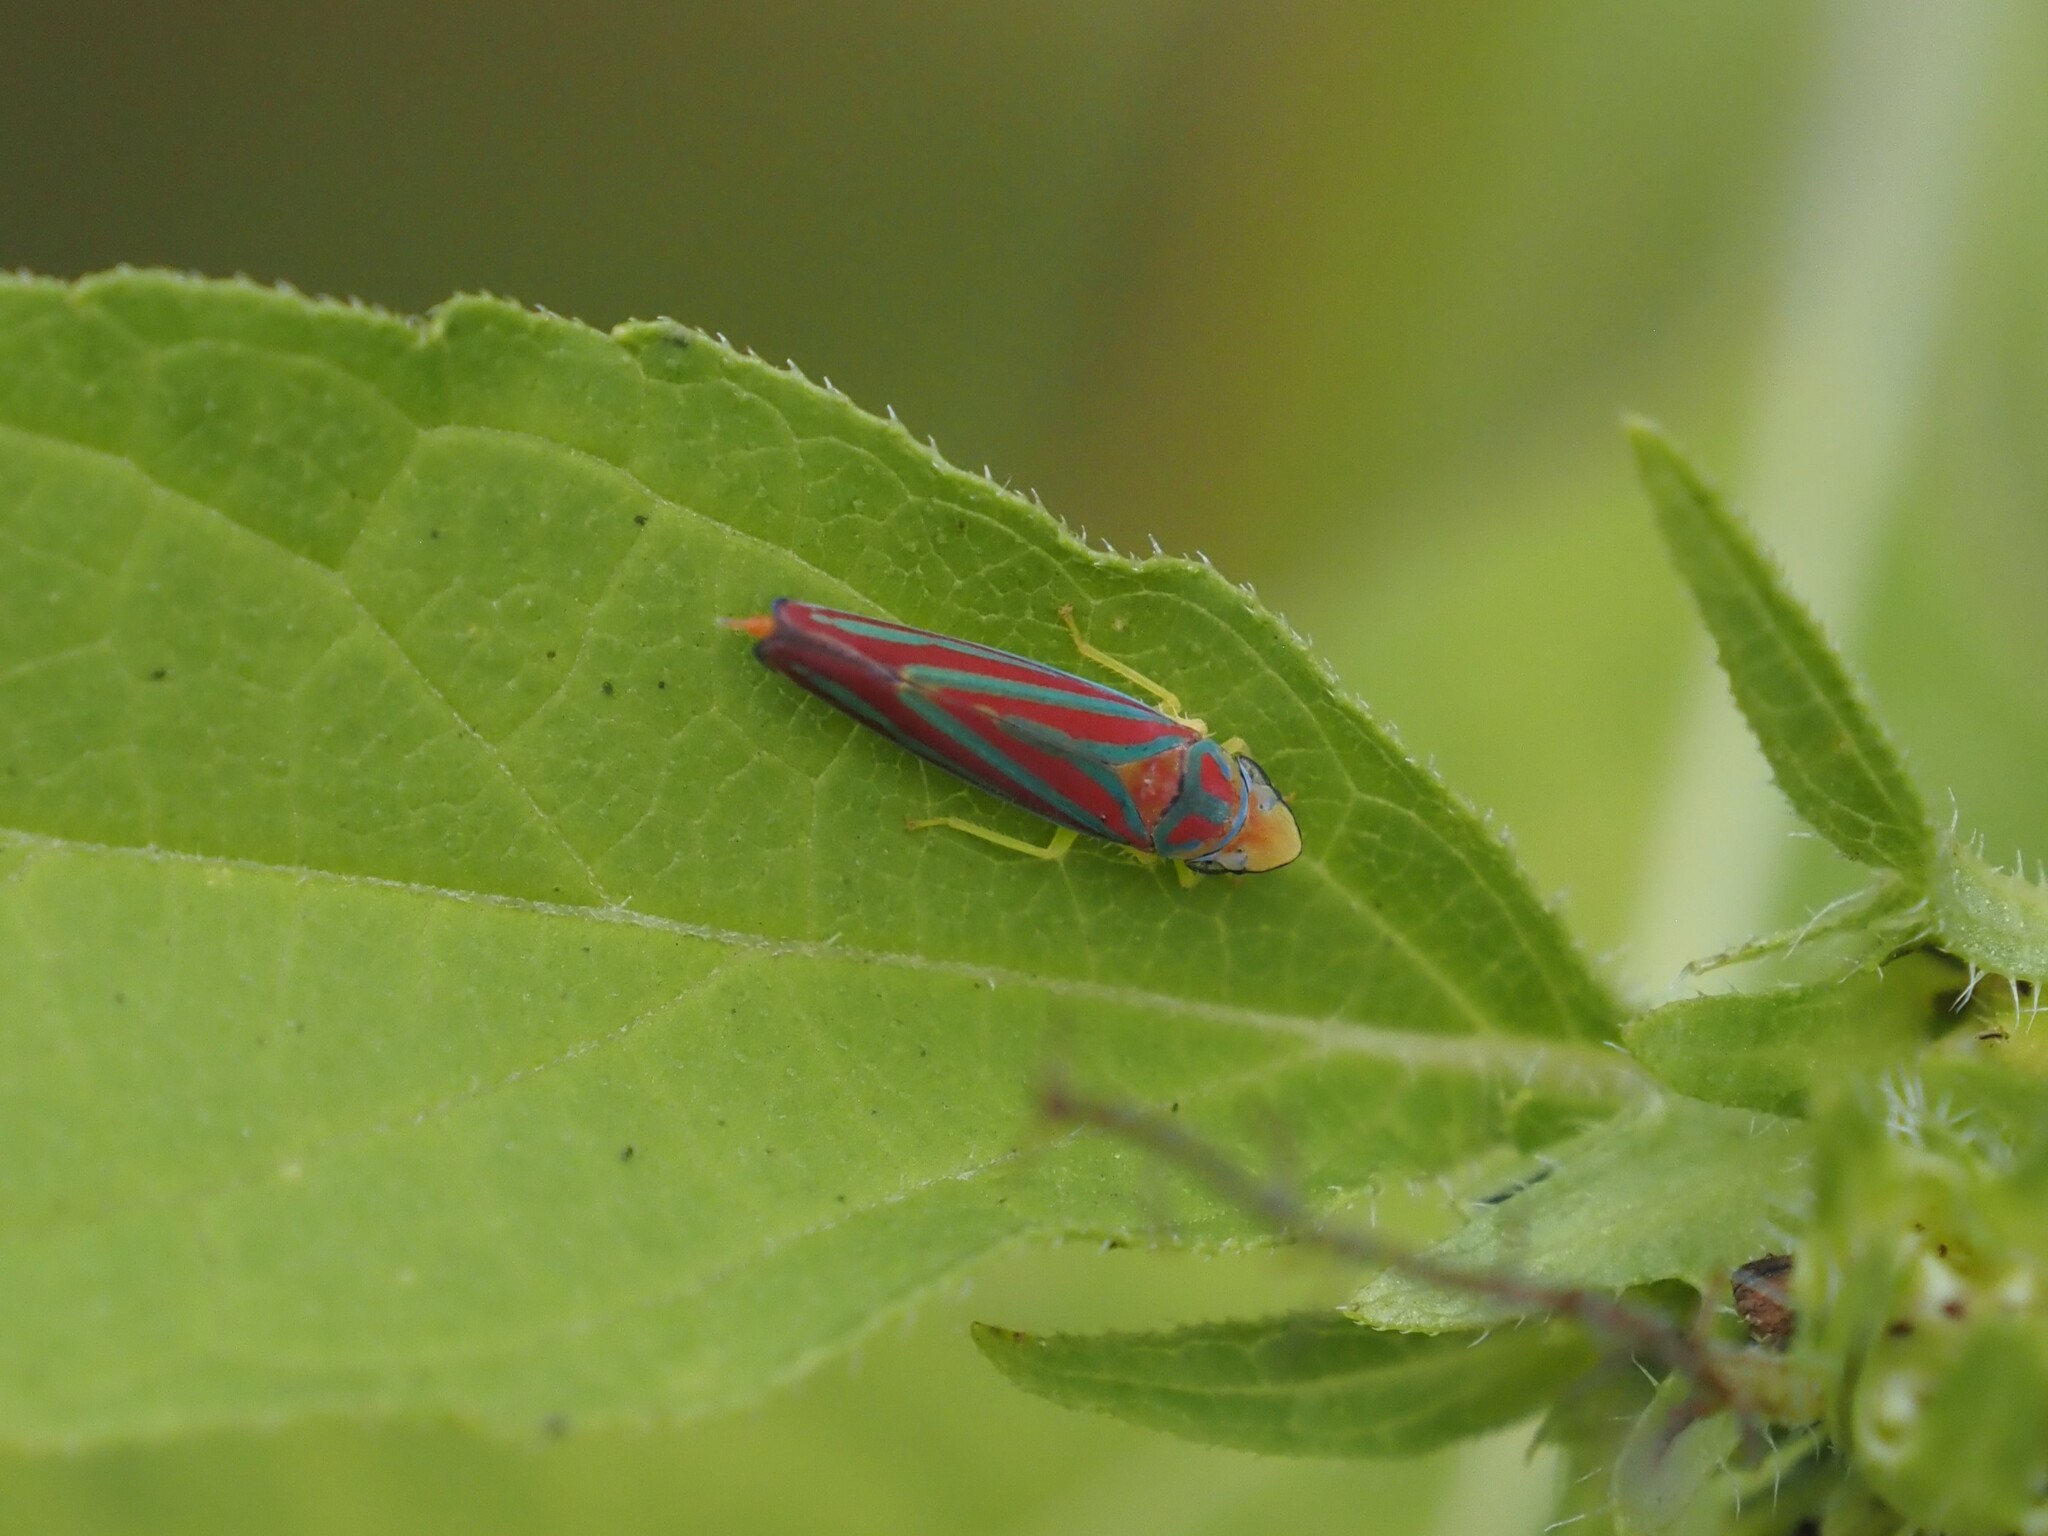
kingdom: Animalia
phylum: Arthropoda
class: Insecta
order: Hemiptera
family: Cicadellidae
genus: Graphocephala
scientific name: Graphocephala coccinea
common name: Candy-striped leafhopper
